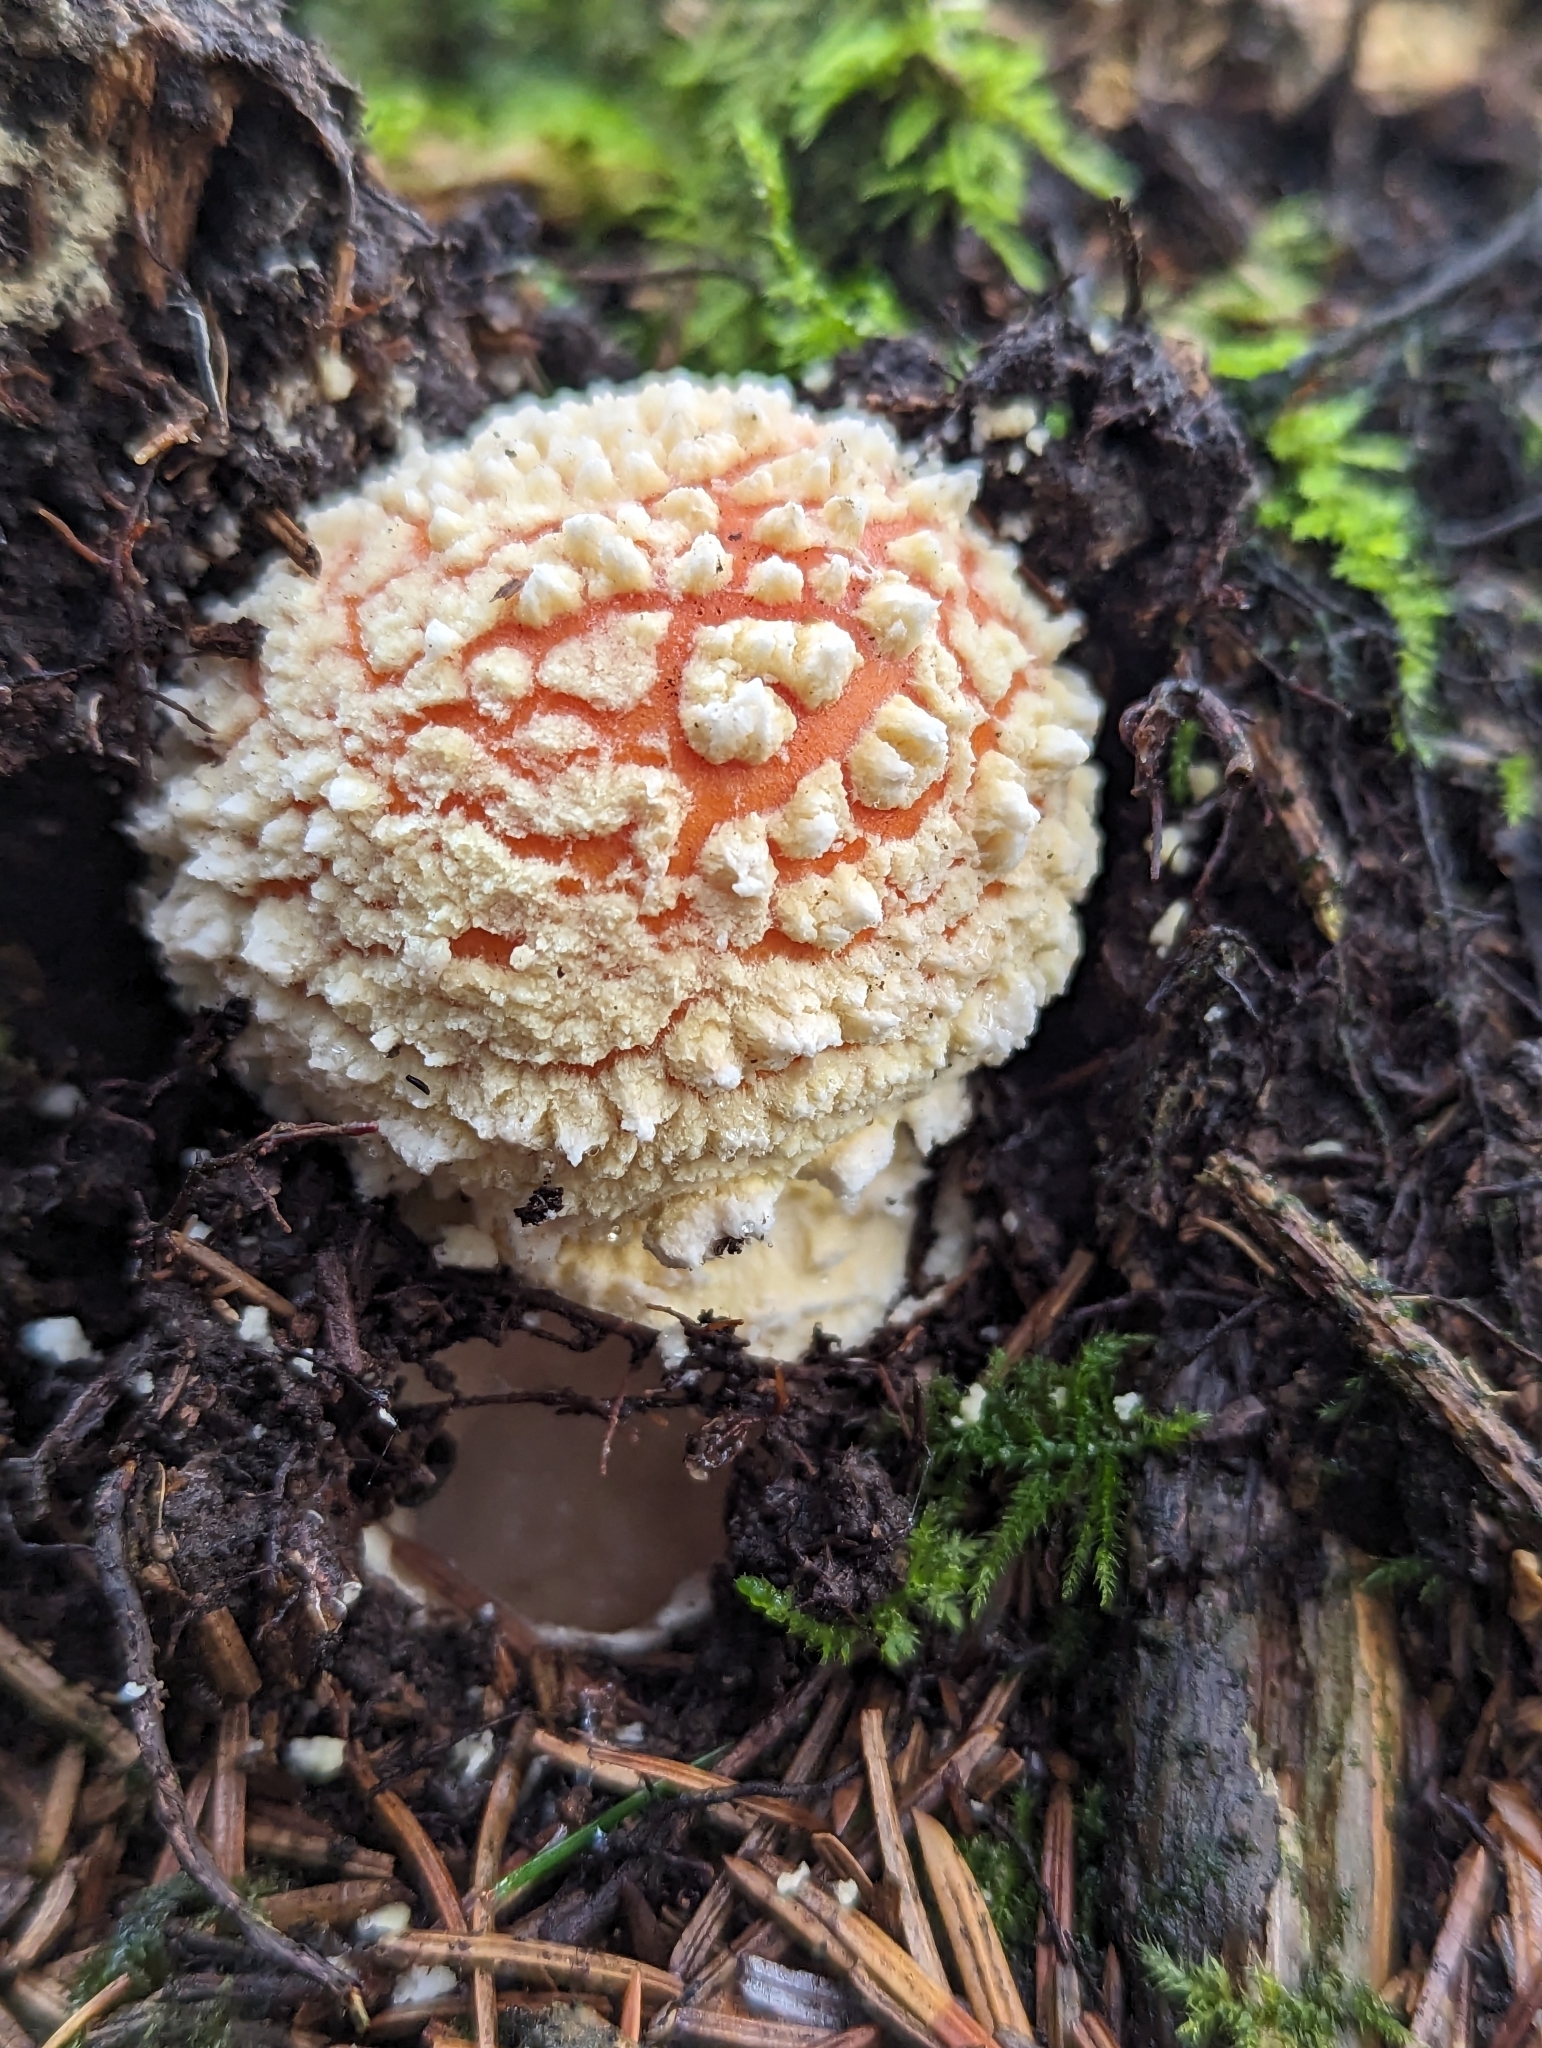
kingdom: Fungi
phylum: Basidiomycota
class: Agaricomycetes
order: Agaricales
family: Amanitaceae
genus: Amanita
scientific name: Amanita muscaria
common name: Fly agaric
